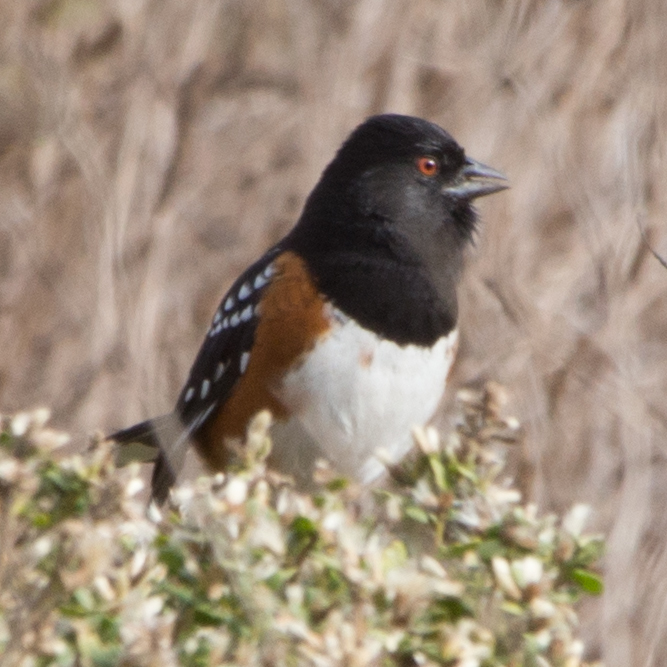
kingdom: Animalia
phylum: Chordata
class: Aves
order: Passeriformes
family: Passerellidae
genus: Pipilo
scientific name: Pipilo maculatus
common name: Spotted towhee
